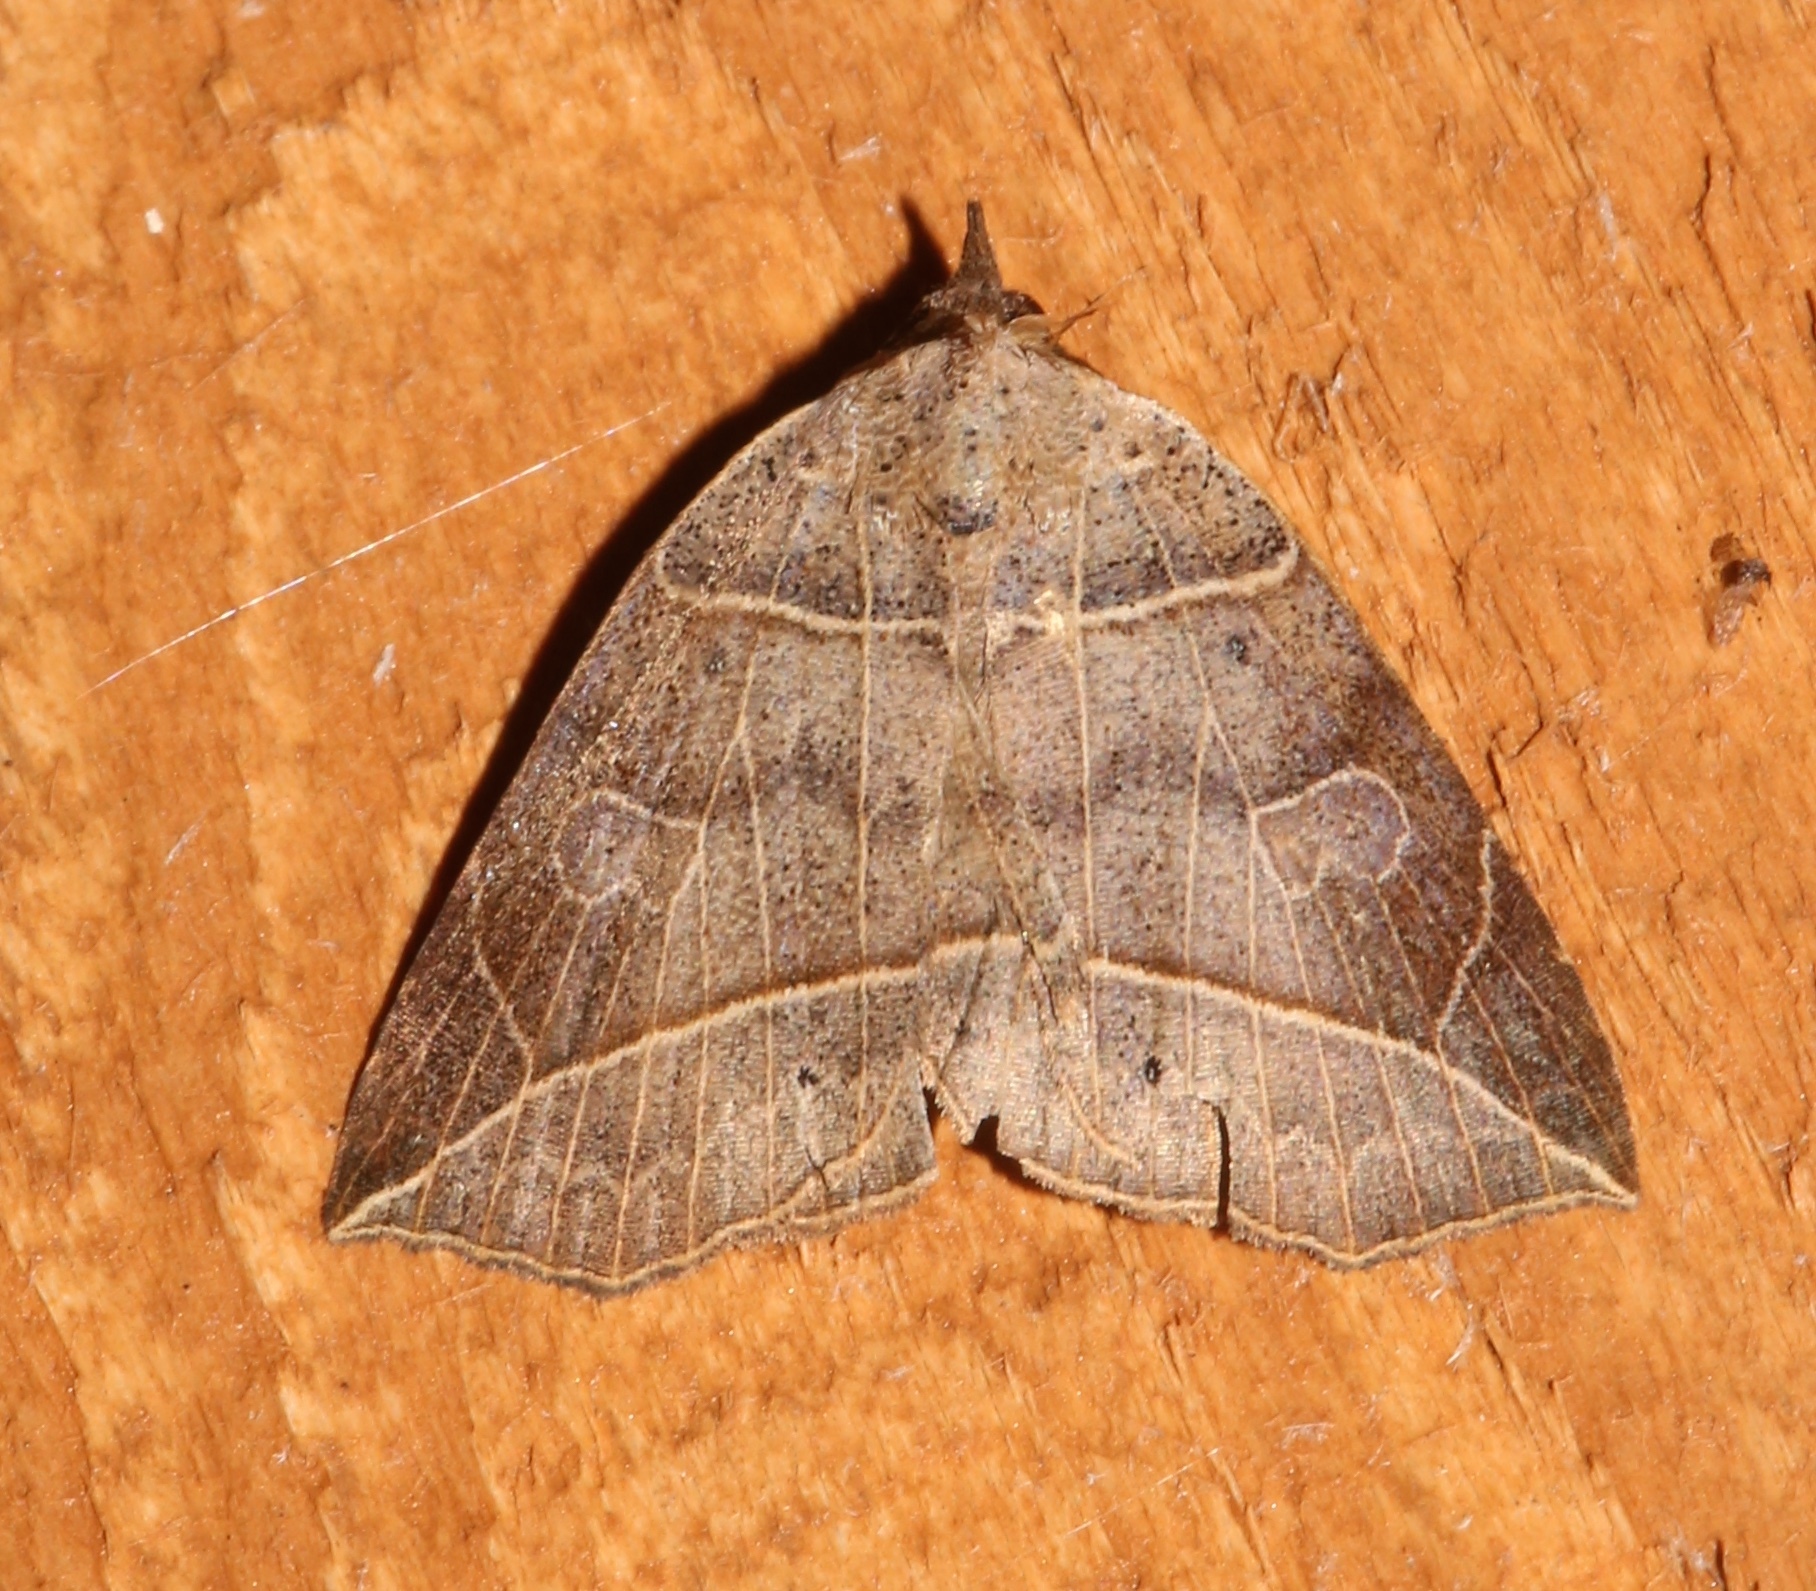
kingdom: Animalia
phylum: Arthropoda
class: Insecta
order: Lepidoptera
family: Erebidae
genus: Isogona
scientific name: Isogona tenuis
